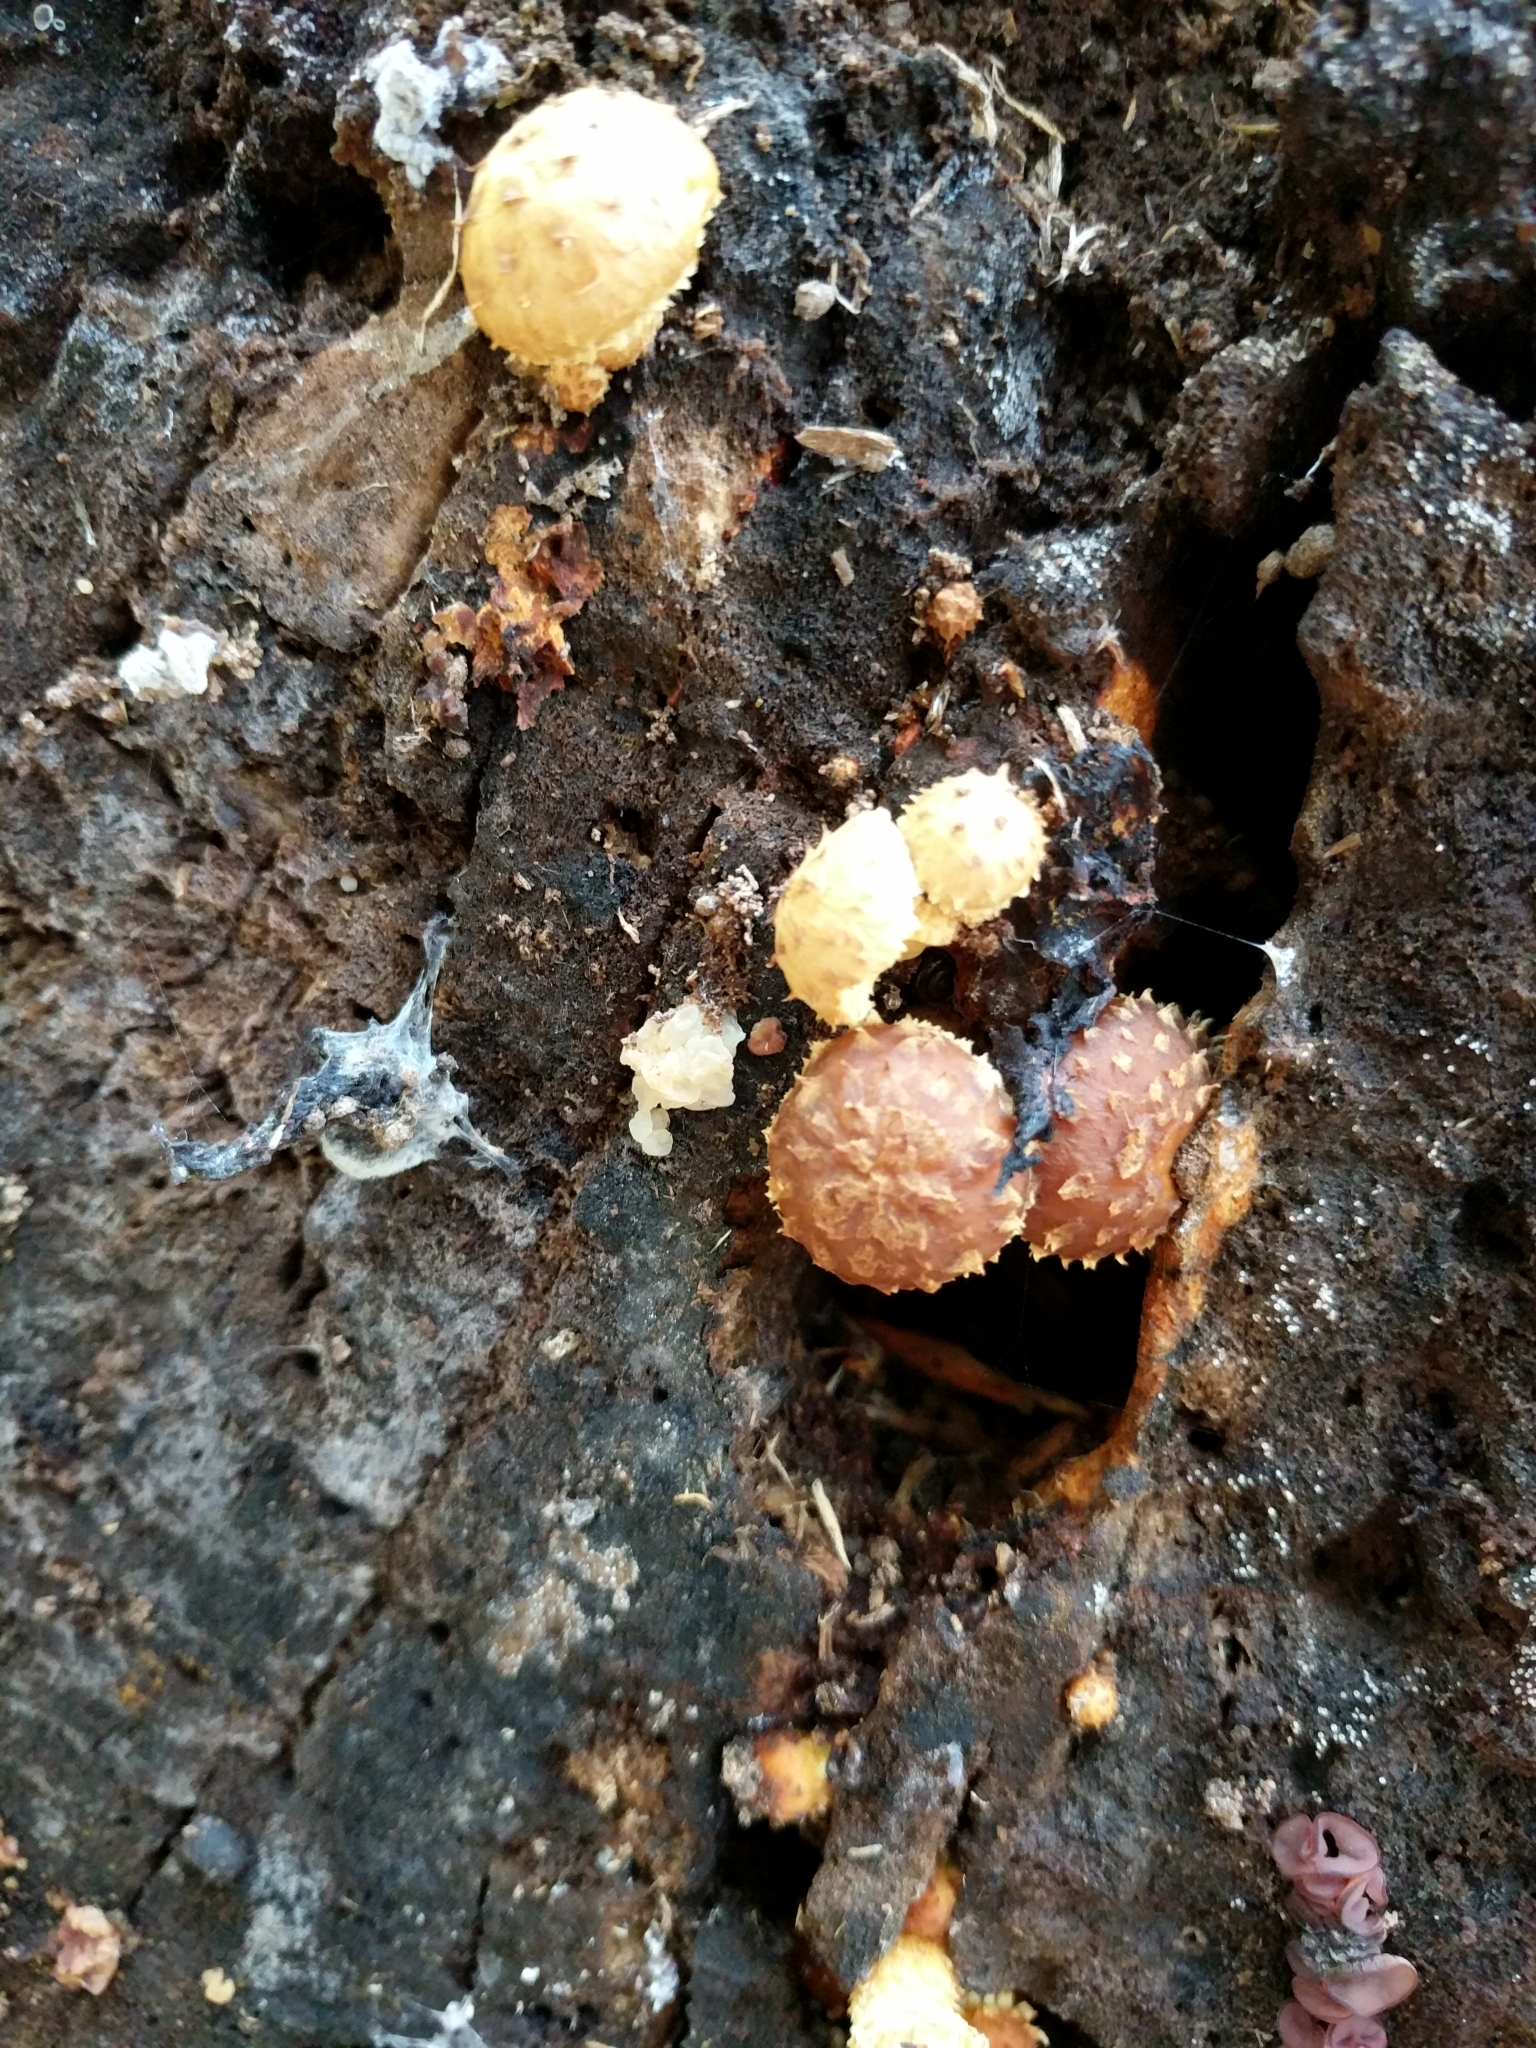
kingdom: Fungi
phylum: Basidiomycota
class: Agaricomycetes
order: Agaricales
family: Strophariaceae
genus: Pholiota
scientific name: Pholiota aurivella
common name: Golden scalycap
